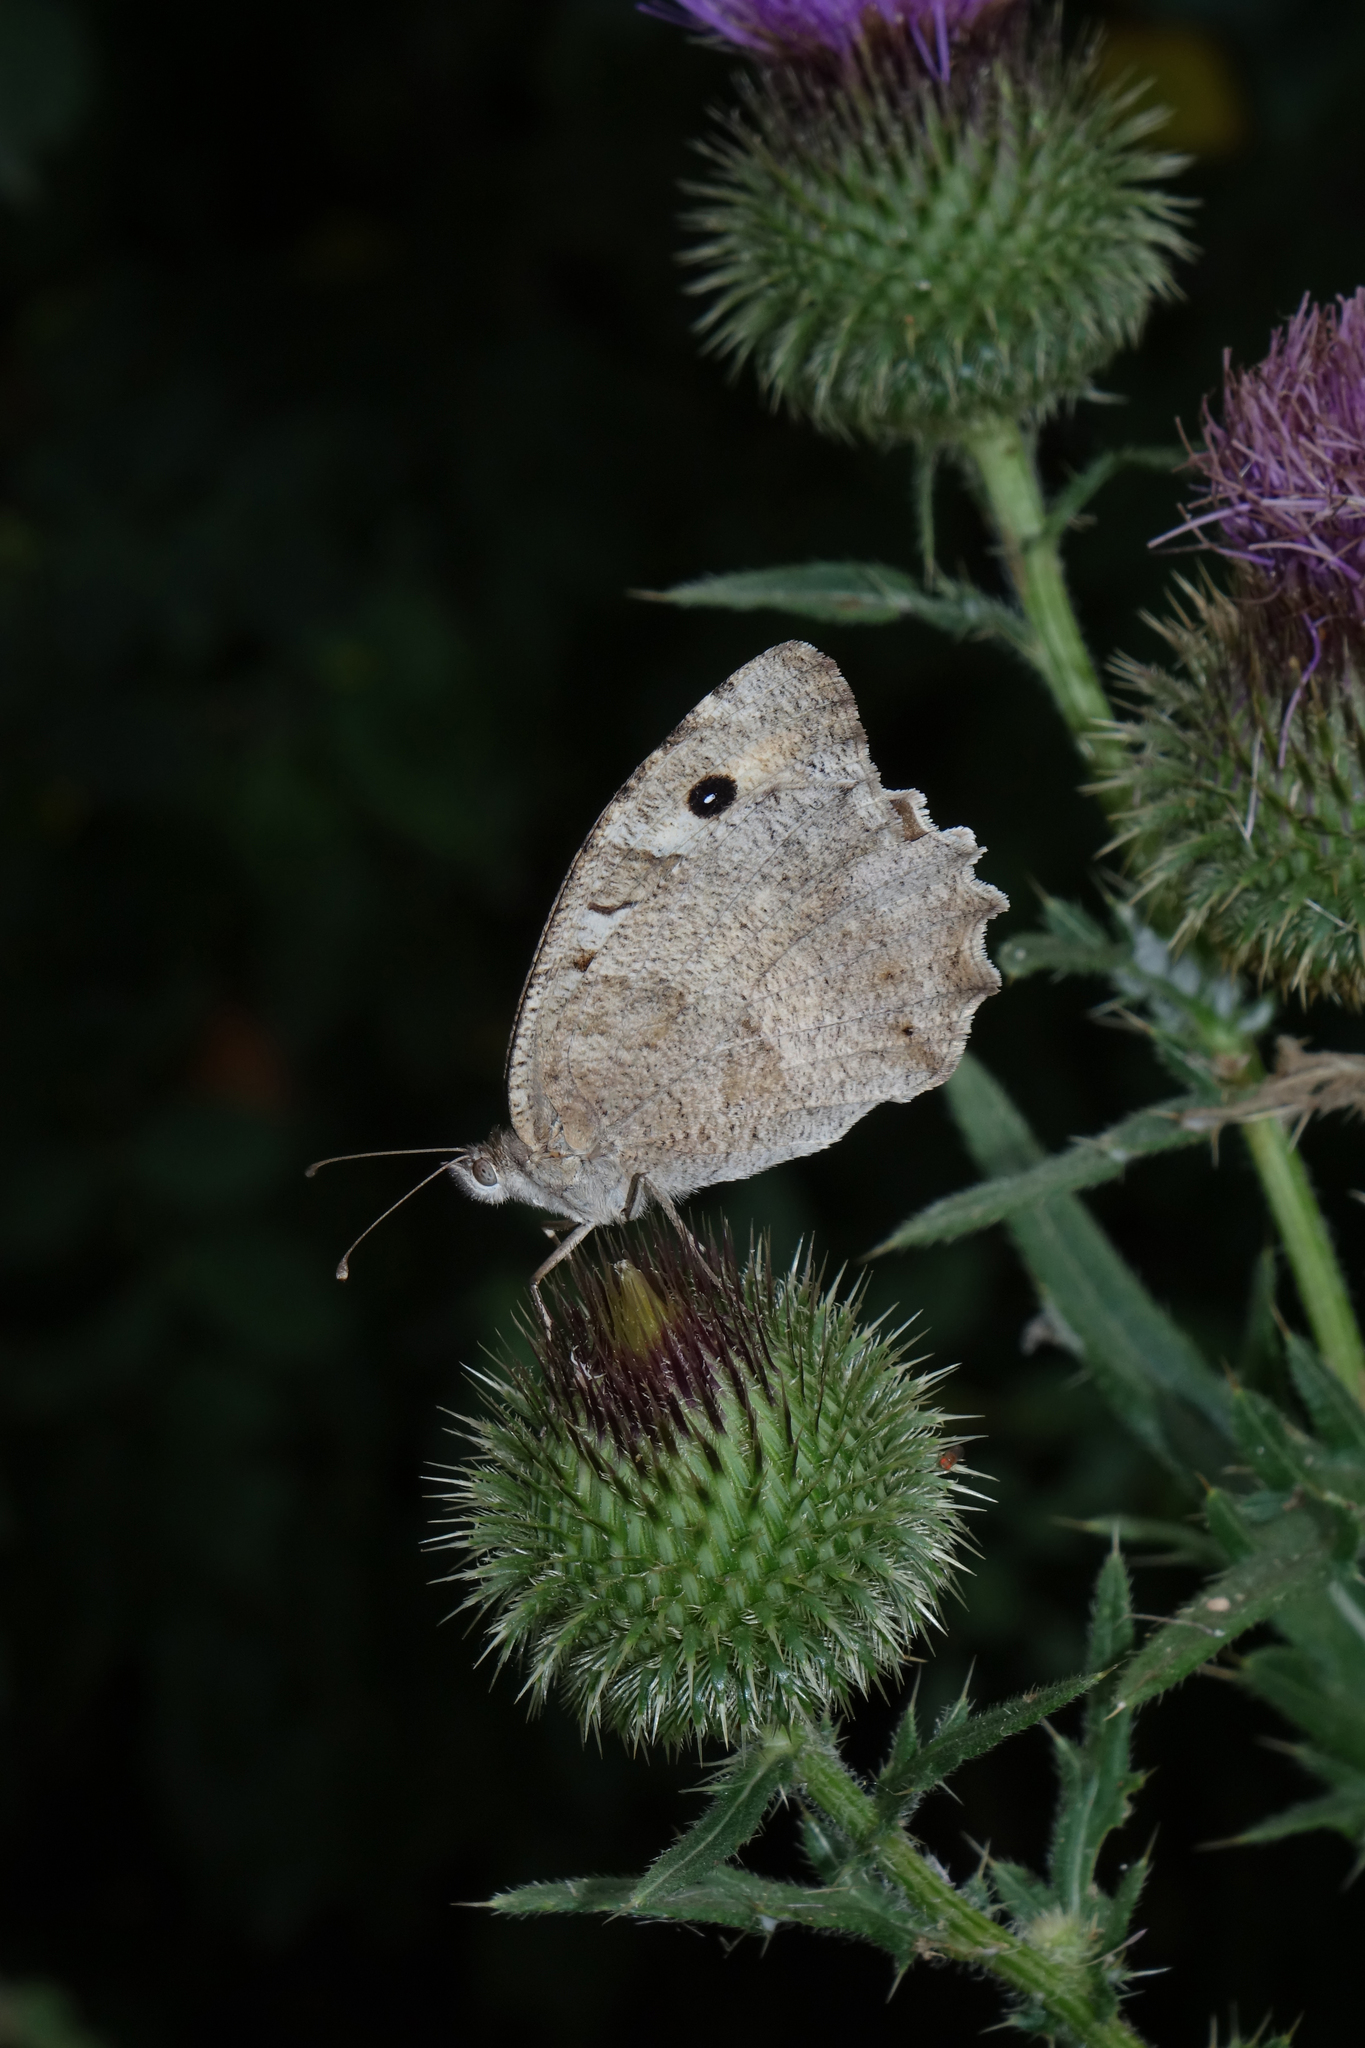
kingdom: Animalia
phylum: Arthropoda
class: Insecta
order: Lepidoptera
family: Nymphalidae
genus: Satyrus
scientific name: Satyrus briseis
